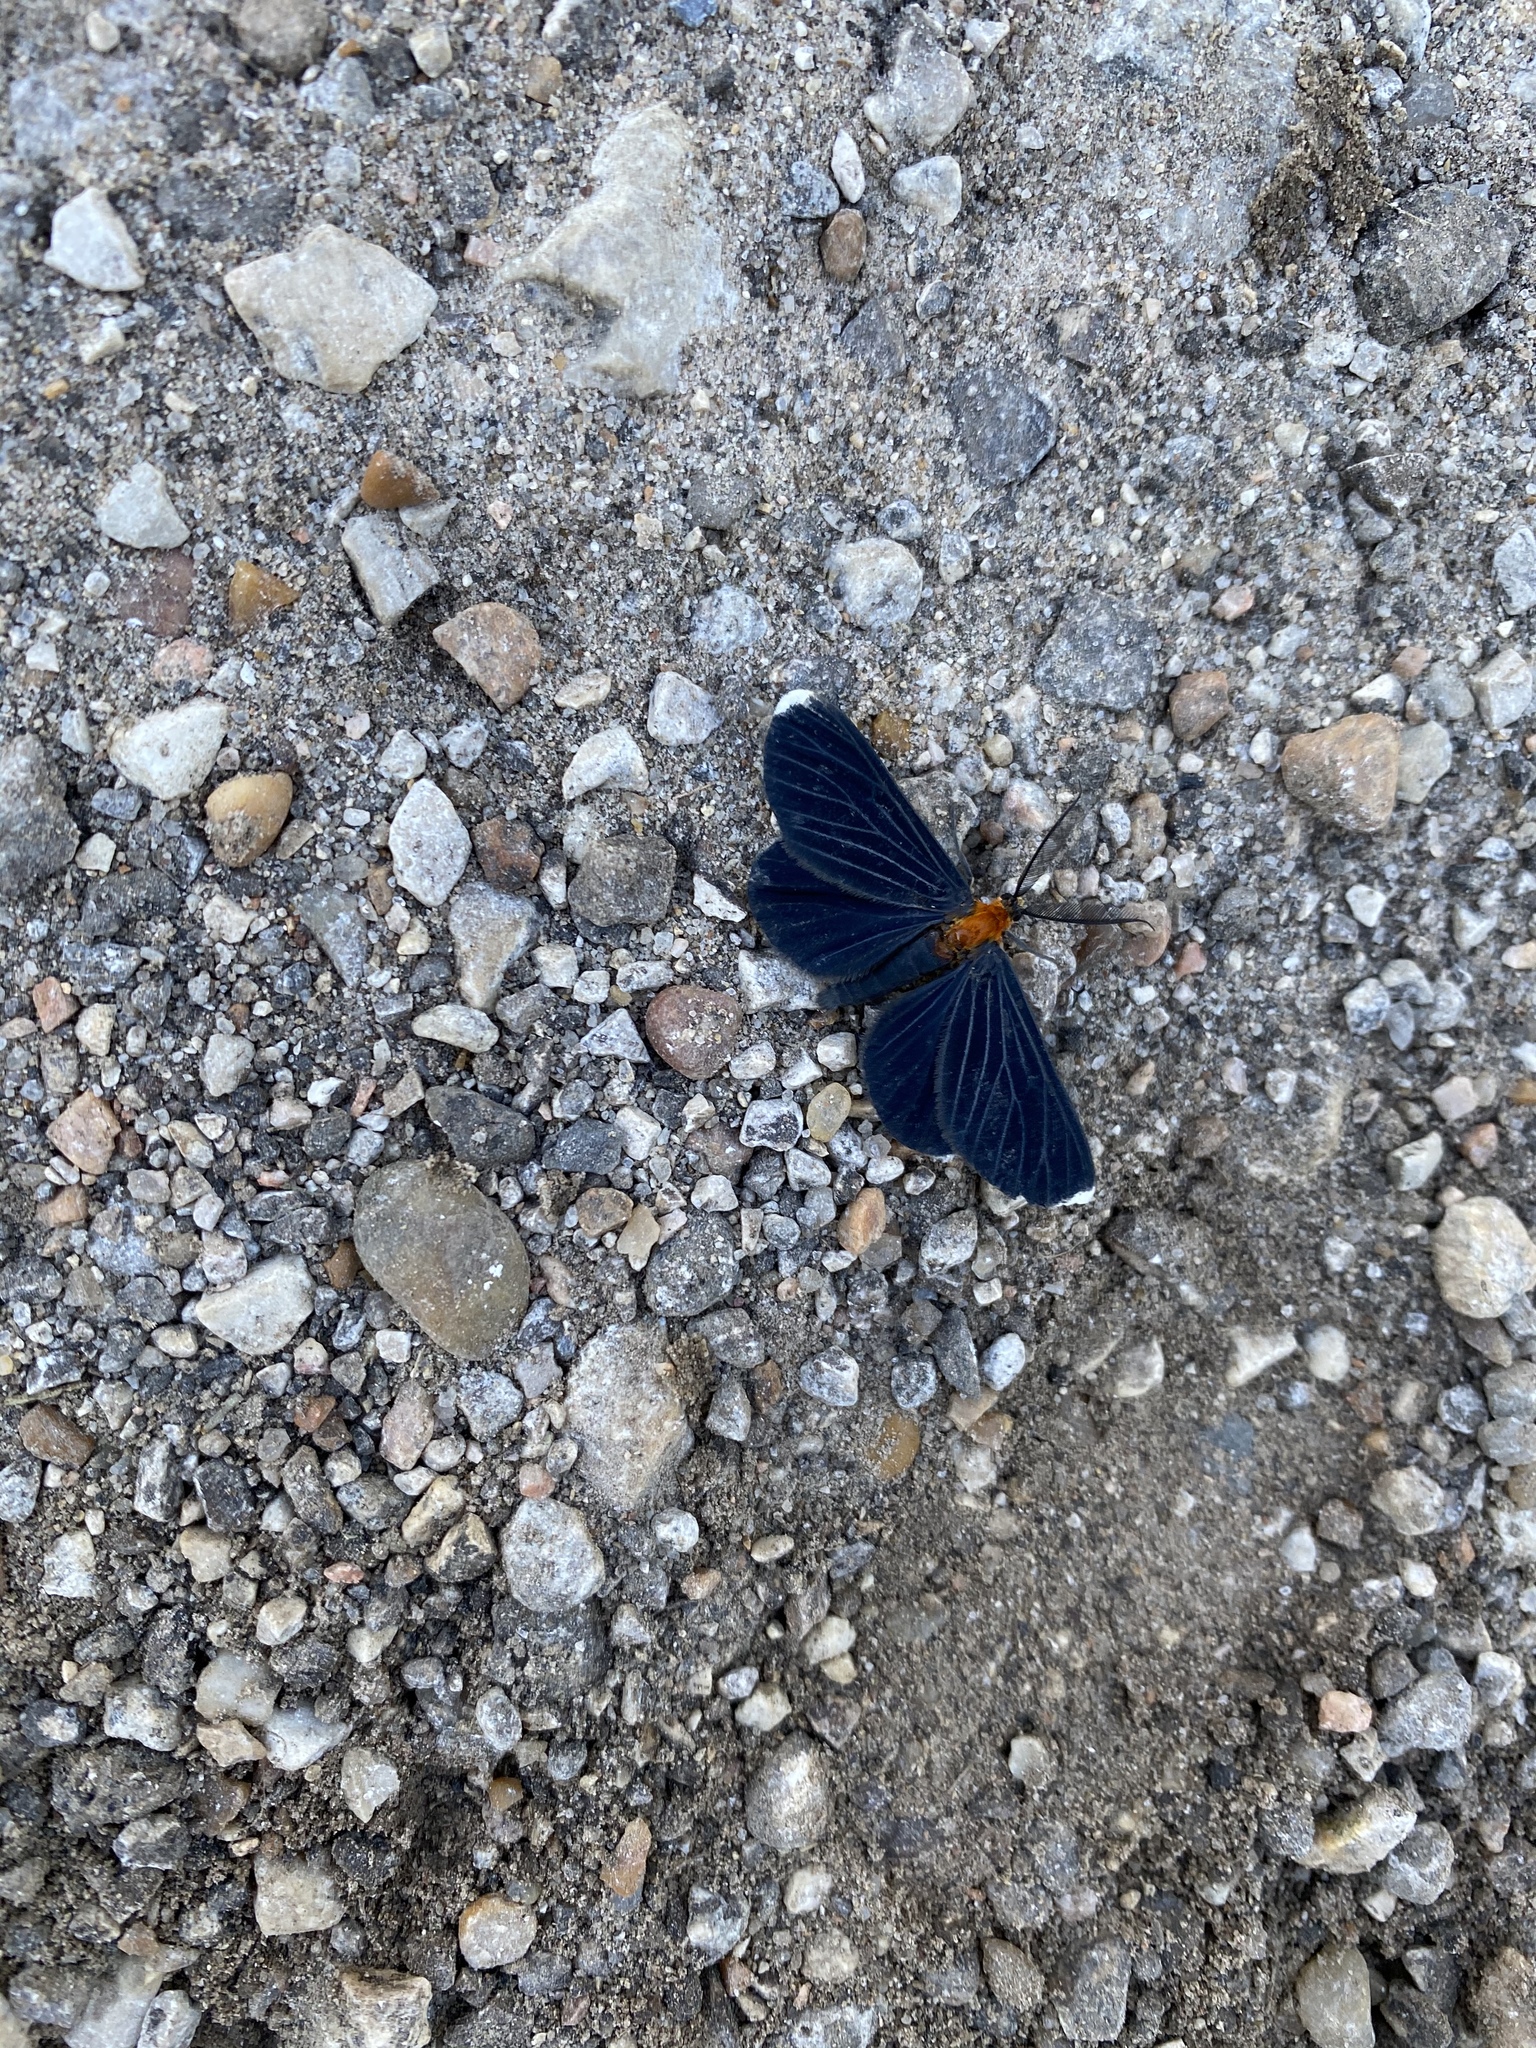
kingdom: Animalia
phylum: Arthropoda
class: Insecta
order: Lepidoptera
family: Geometridae
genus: Melanchroia
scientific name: Melanchroia chephise
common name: White-tipped black
